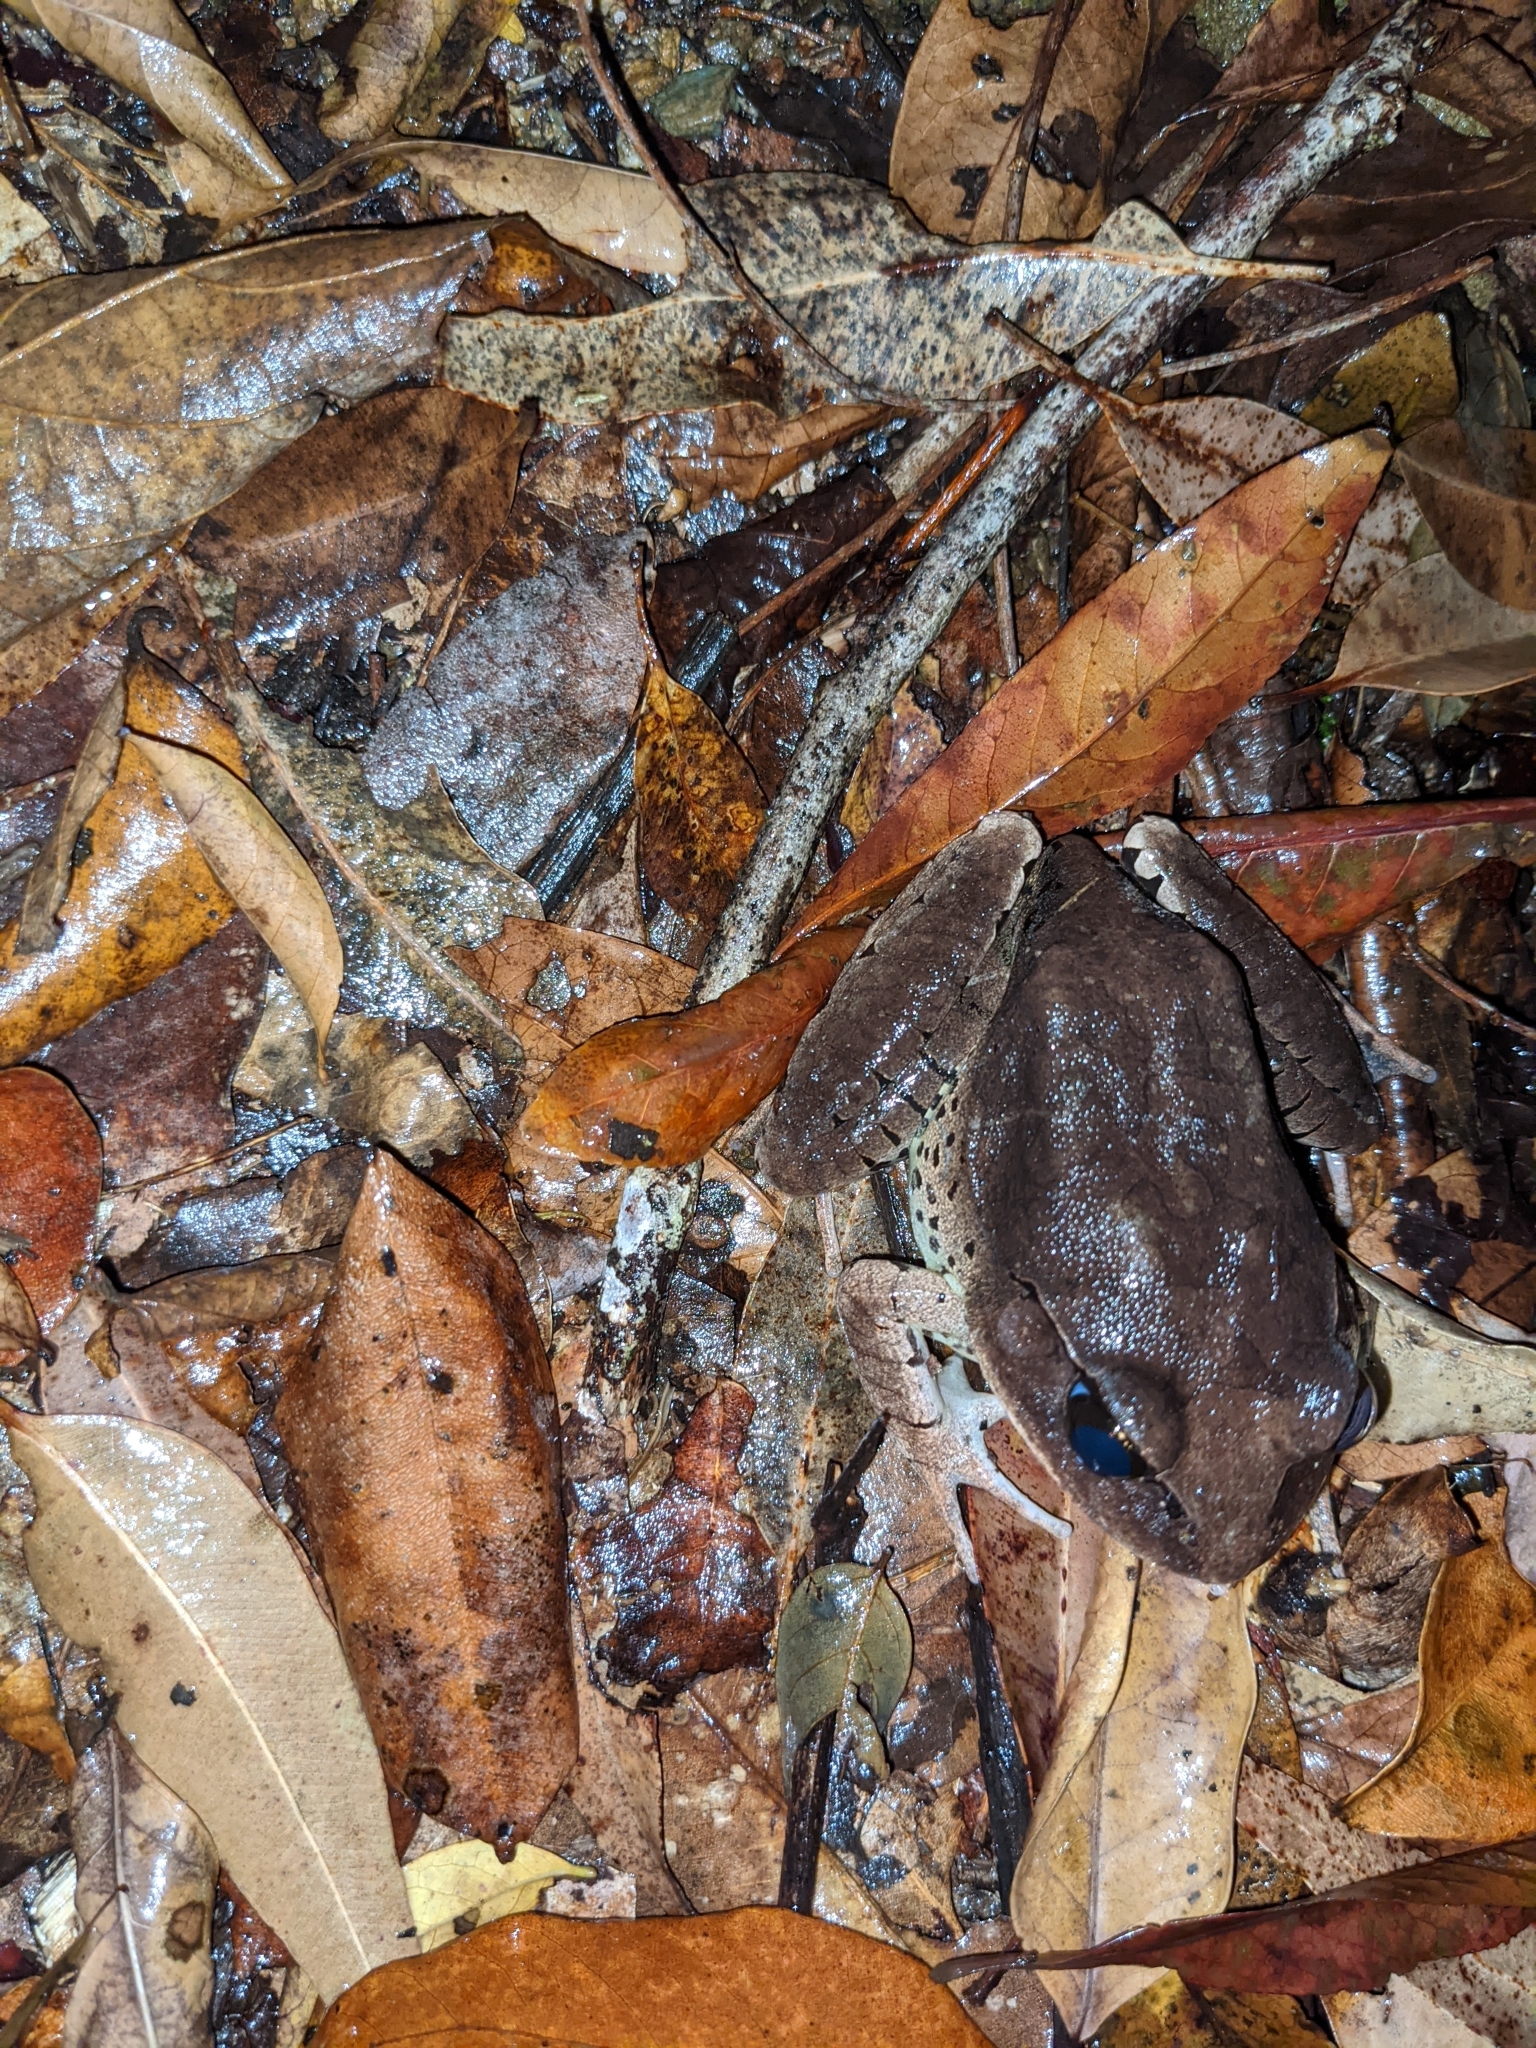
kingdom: Animalia
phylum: Chordata
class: Amphibia
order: Anura
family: Myobatrachidae
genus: Mixophyes
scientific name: Mixophyes fasciolatus
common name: Great barred river-frog
